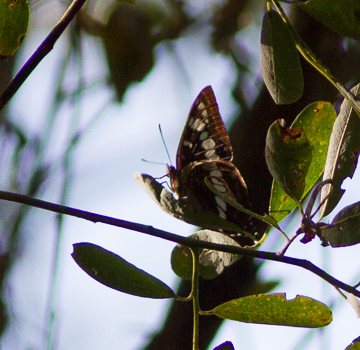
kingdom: Animalia
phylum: Arthropoda
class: Insecta
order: Lepidoptera
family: Nymphalidae
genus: Limenitis
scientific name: Limenitis lorquini
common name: Lorquin's admiral
